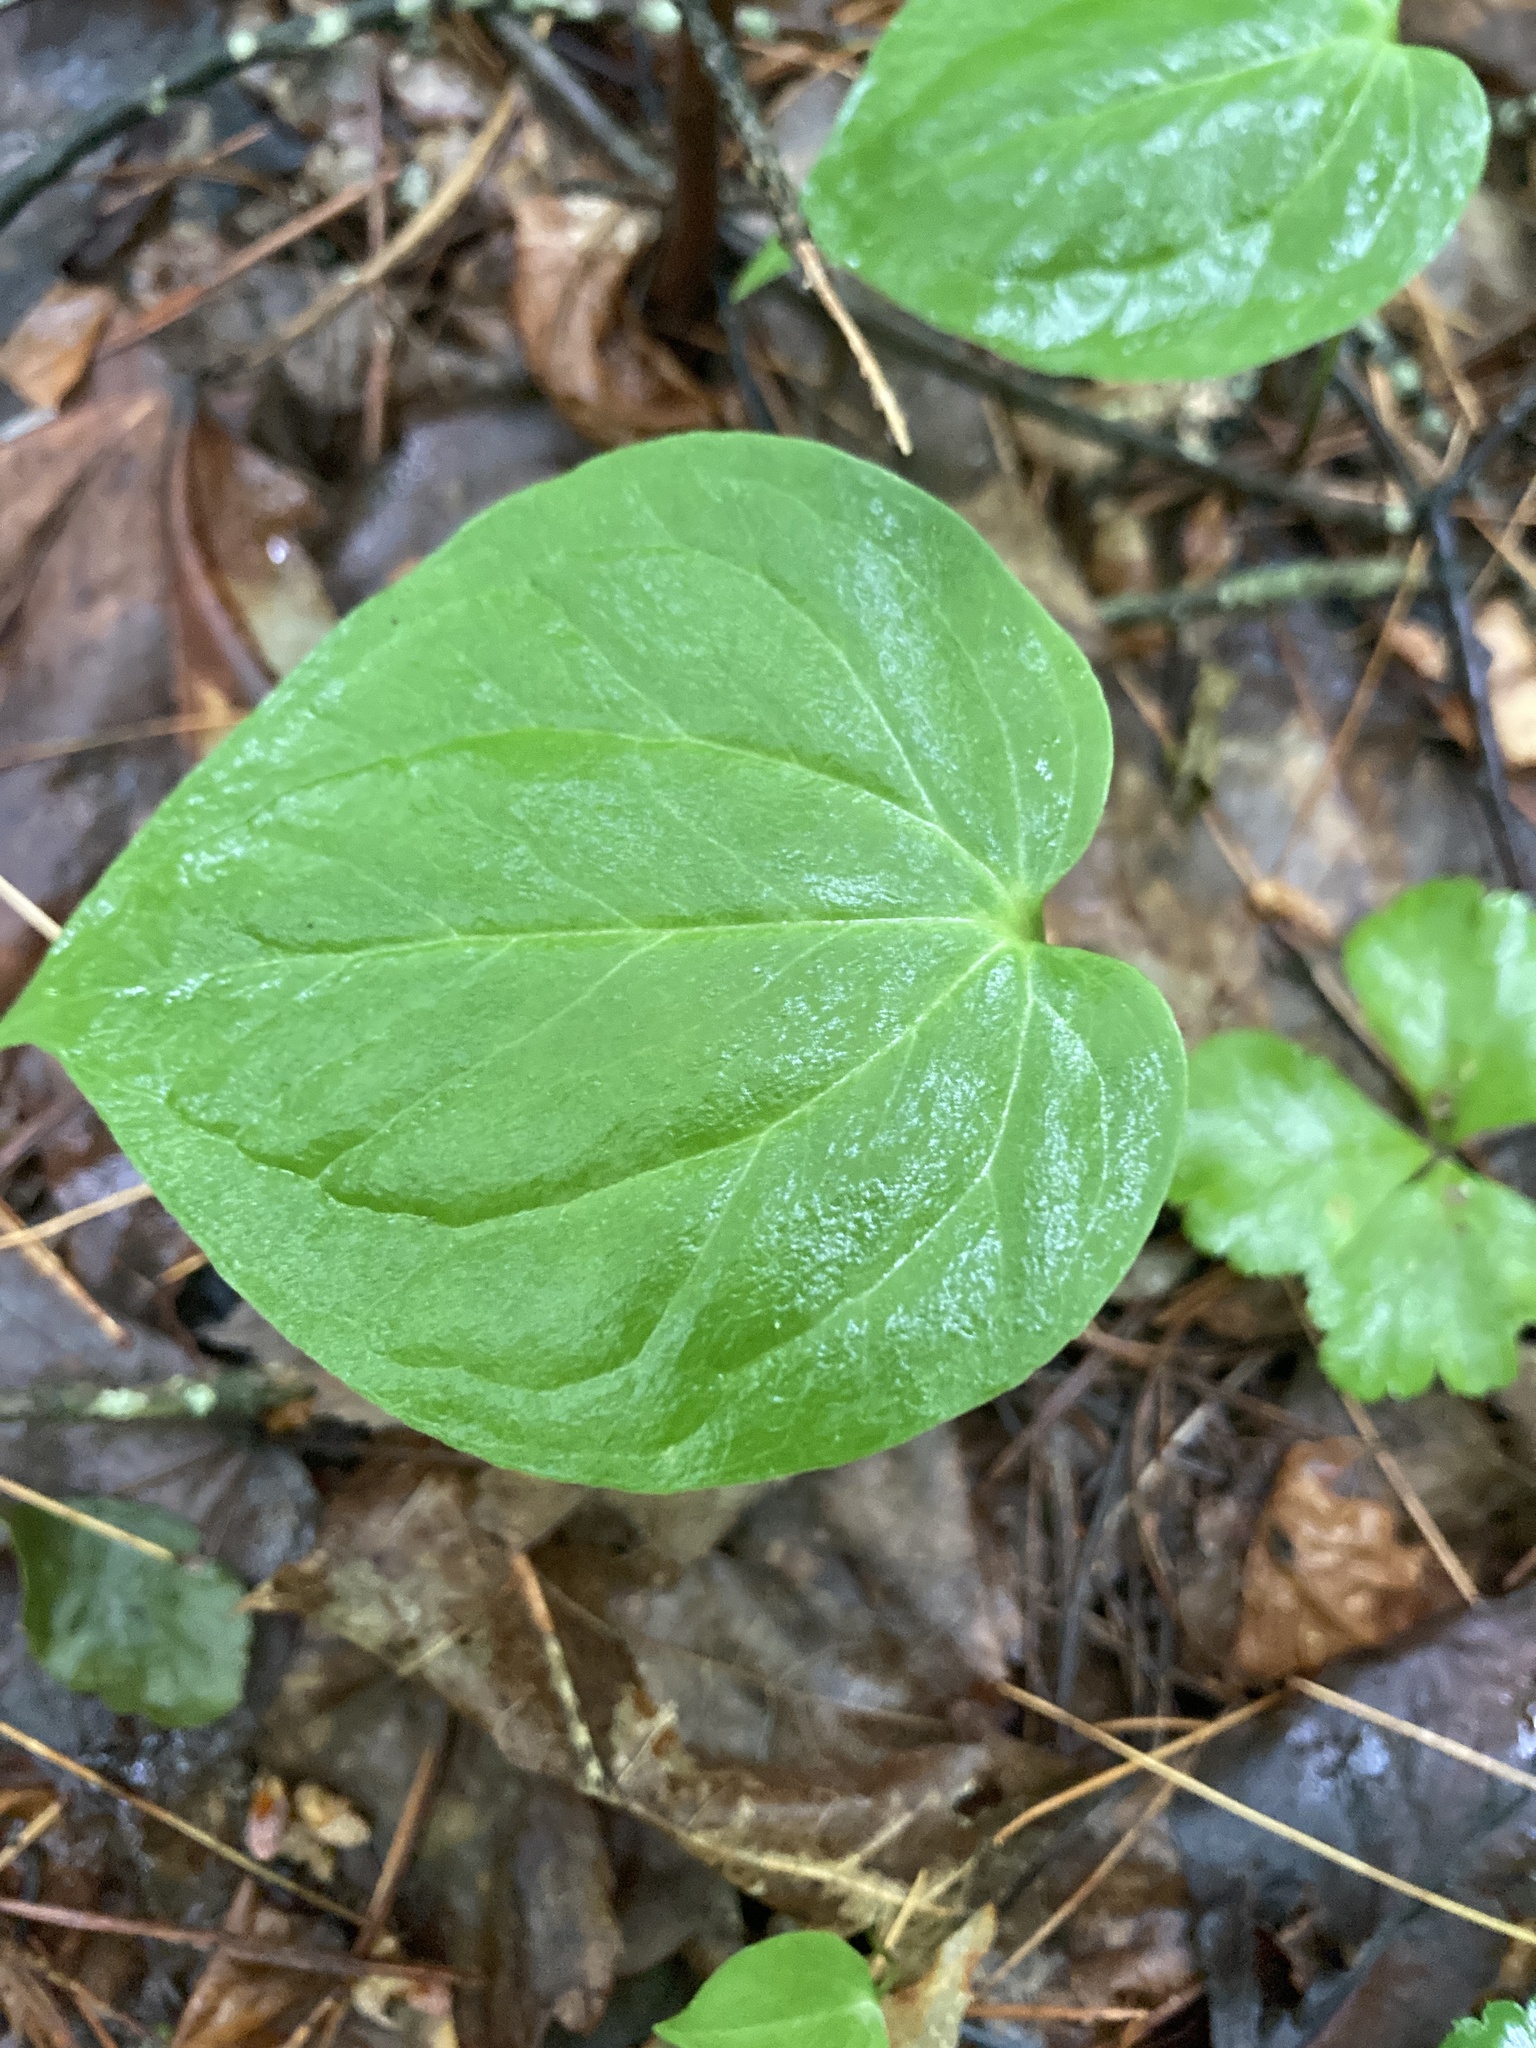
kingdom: Plantae
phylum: Tracheophyta
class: Liliopsida
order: Liliales
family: Melanthiaceae
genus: Trillium
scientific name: Trillium undulatum
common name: Paint trillium
